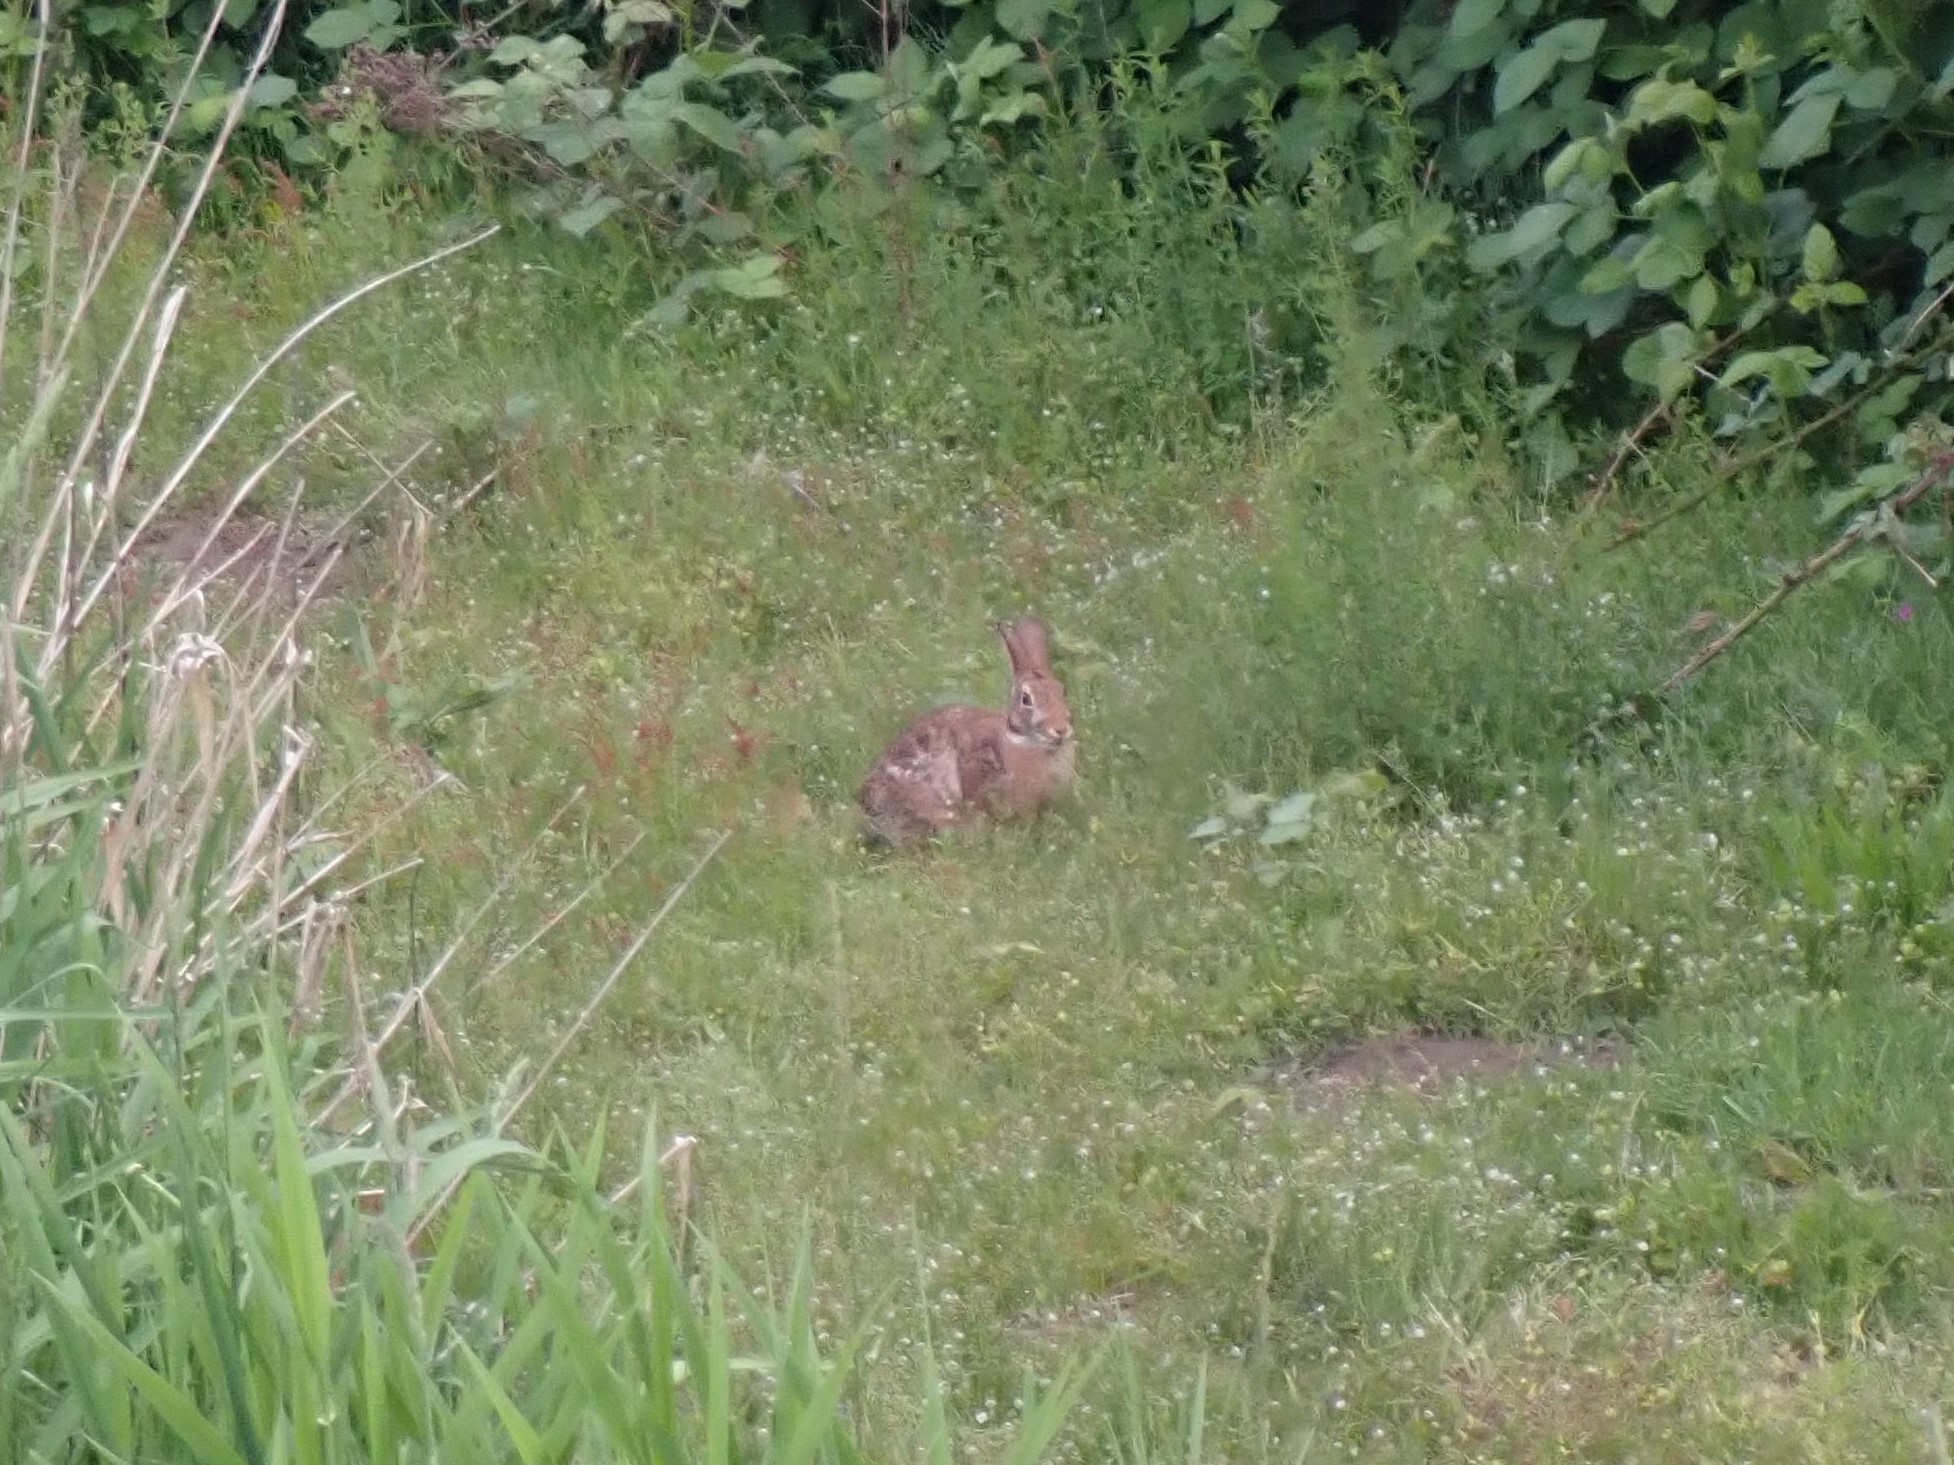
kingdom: Animalia
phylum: Chordata
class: Mammalia
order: Lagomorpha
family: Leporidae
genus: Sylvilagus
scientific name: Sylvilagus floridanus
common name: Eastern cottontail
